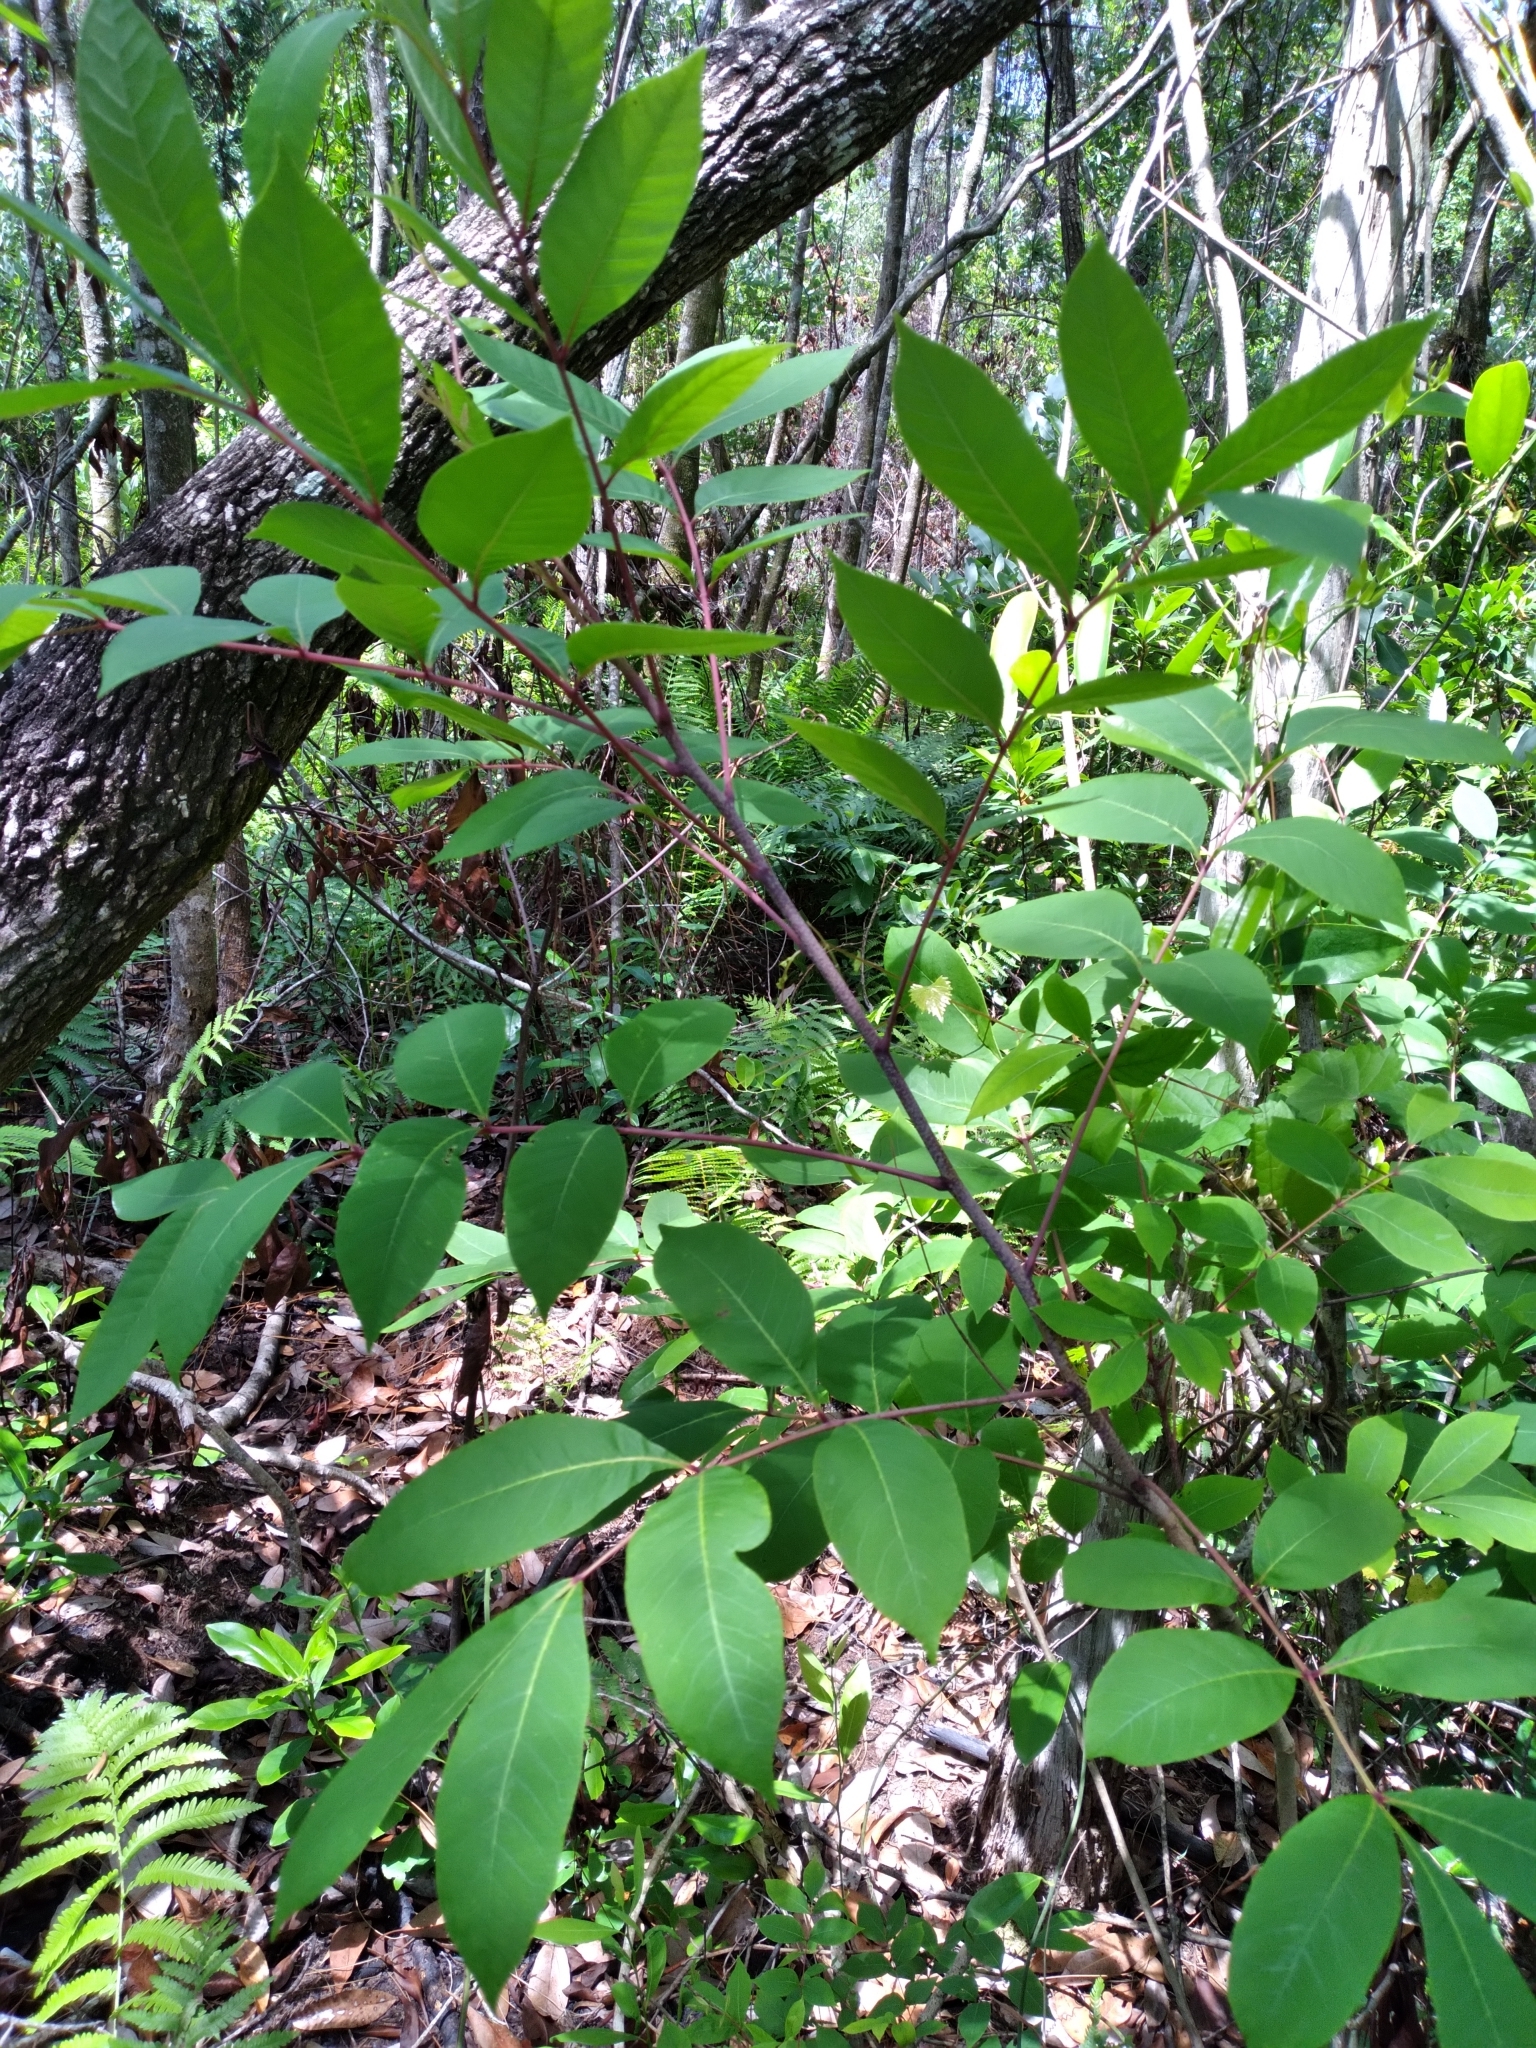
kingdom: Plantae
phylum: Tracheophyta
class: Magnoliopsida
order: Sapindales
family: Anacardiaceae
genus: Toxicodendron
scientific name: Toxicodendron vernix
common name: Poison sumac
